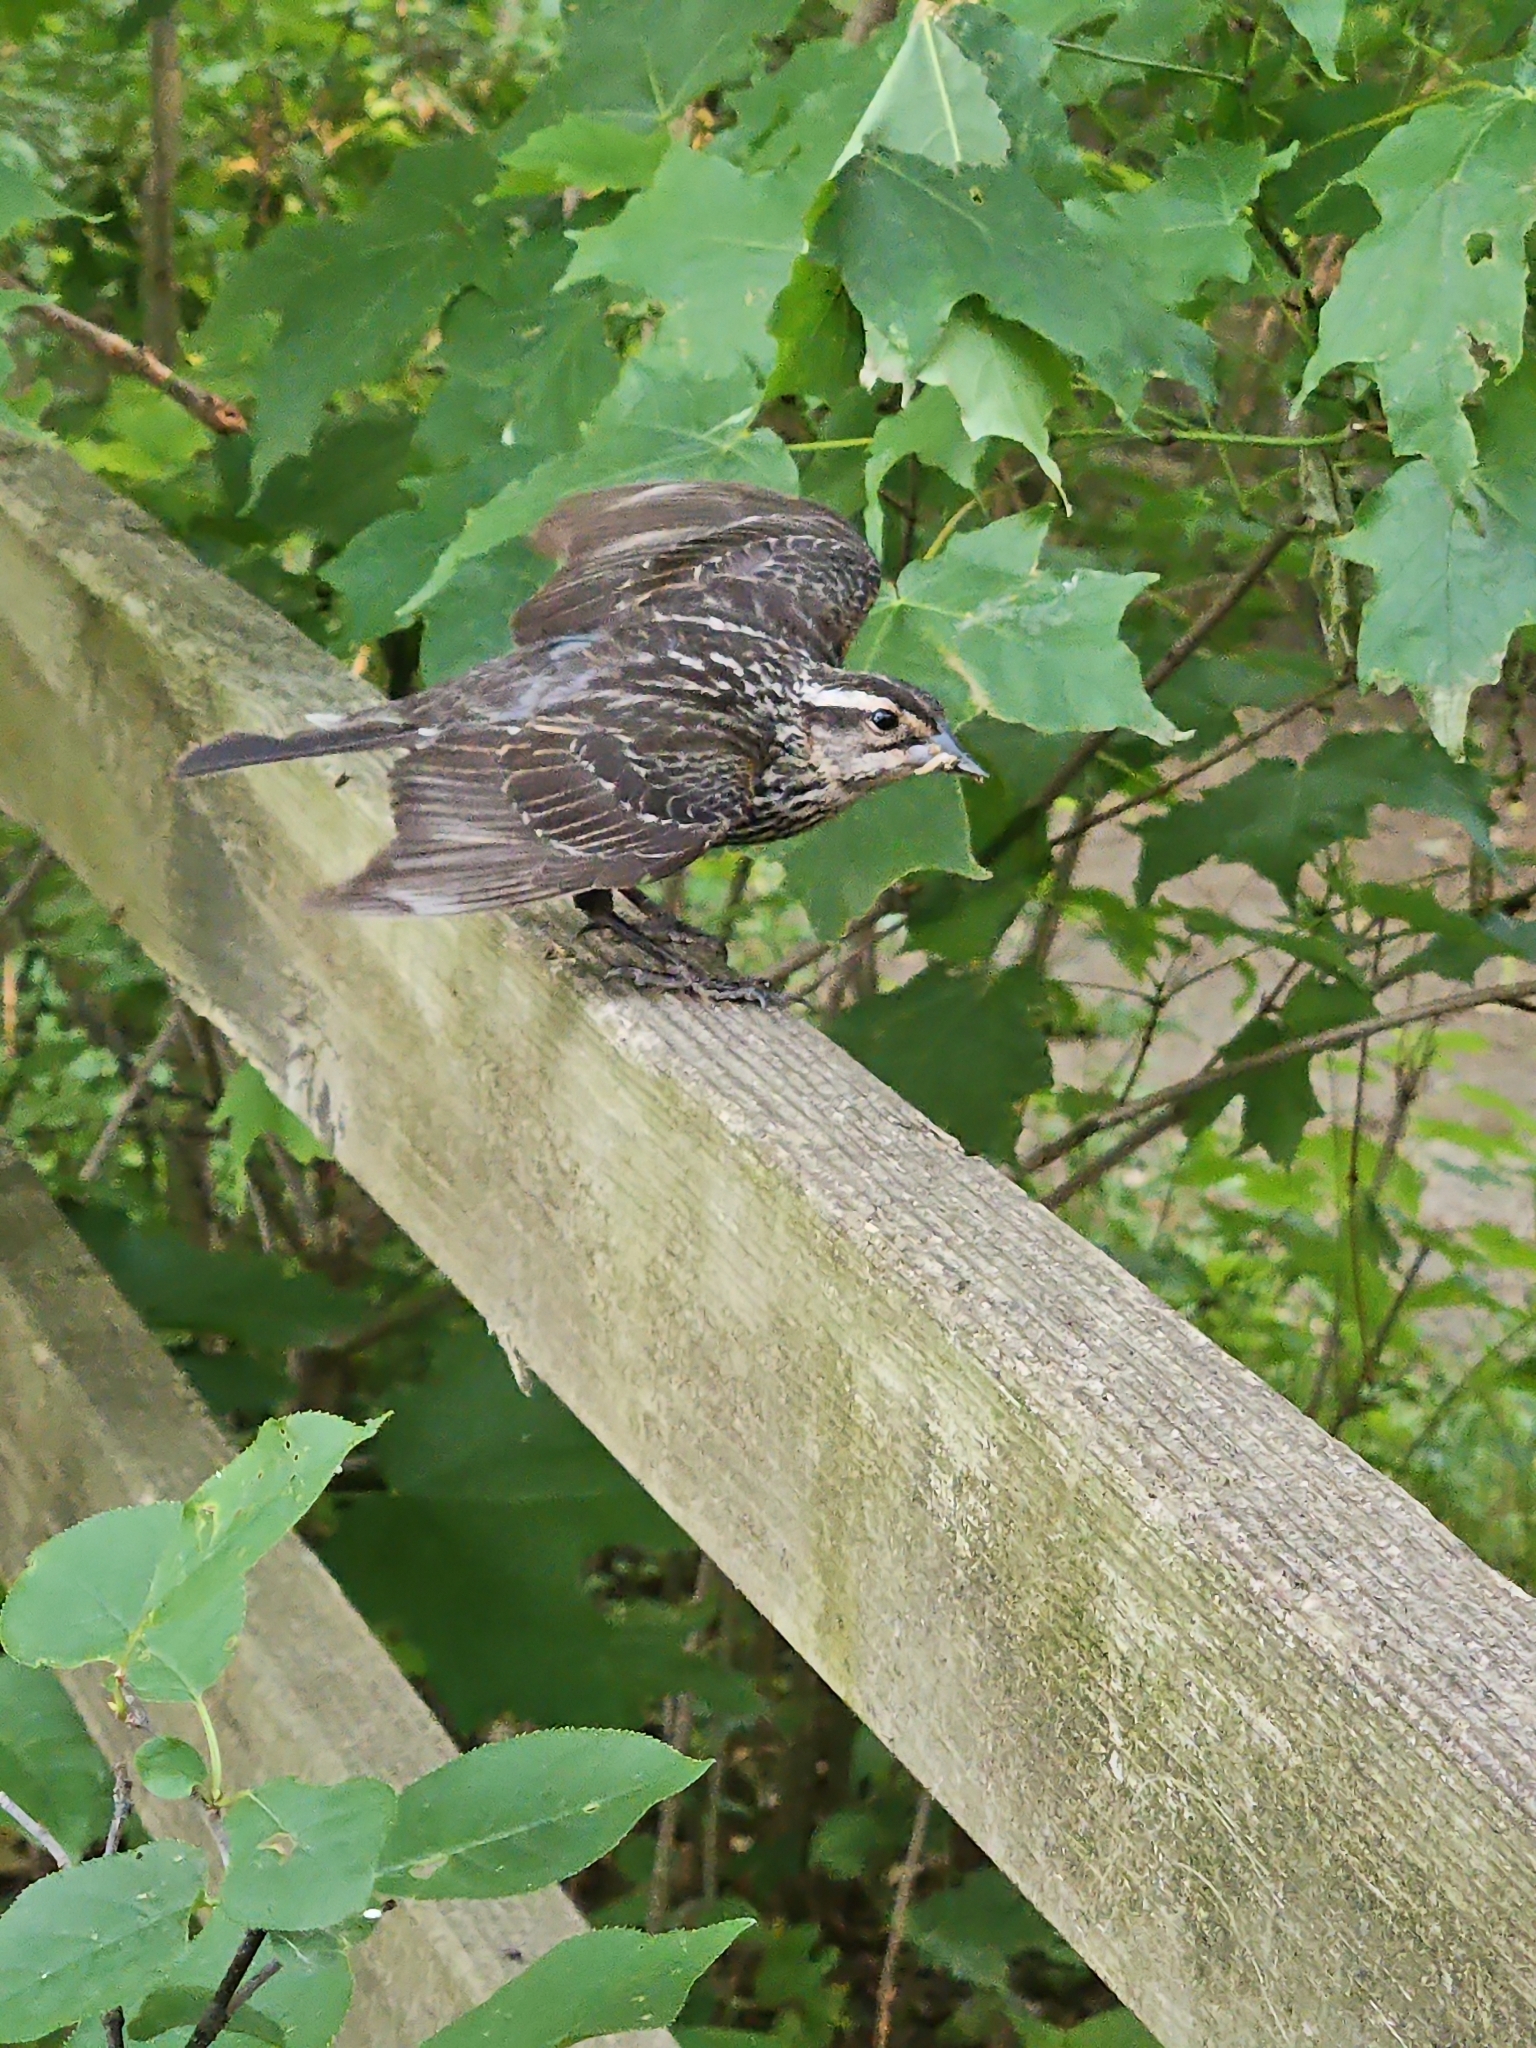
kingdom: Animalia
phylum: Chordata
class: Aves
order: Passeriformes
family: Icteridae
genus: Agelaius
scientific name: Agelaius phoeniceus
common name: Red-winged blackbird
